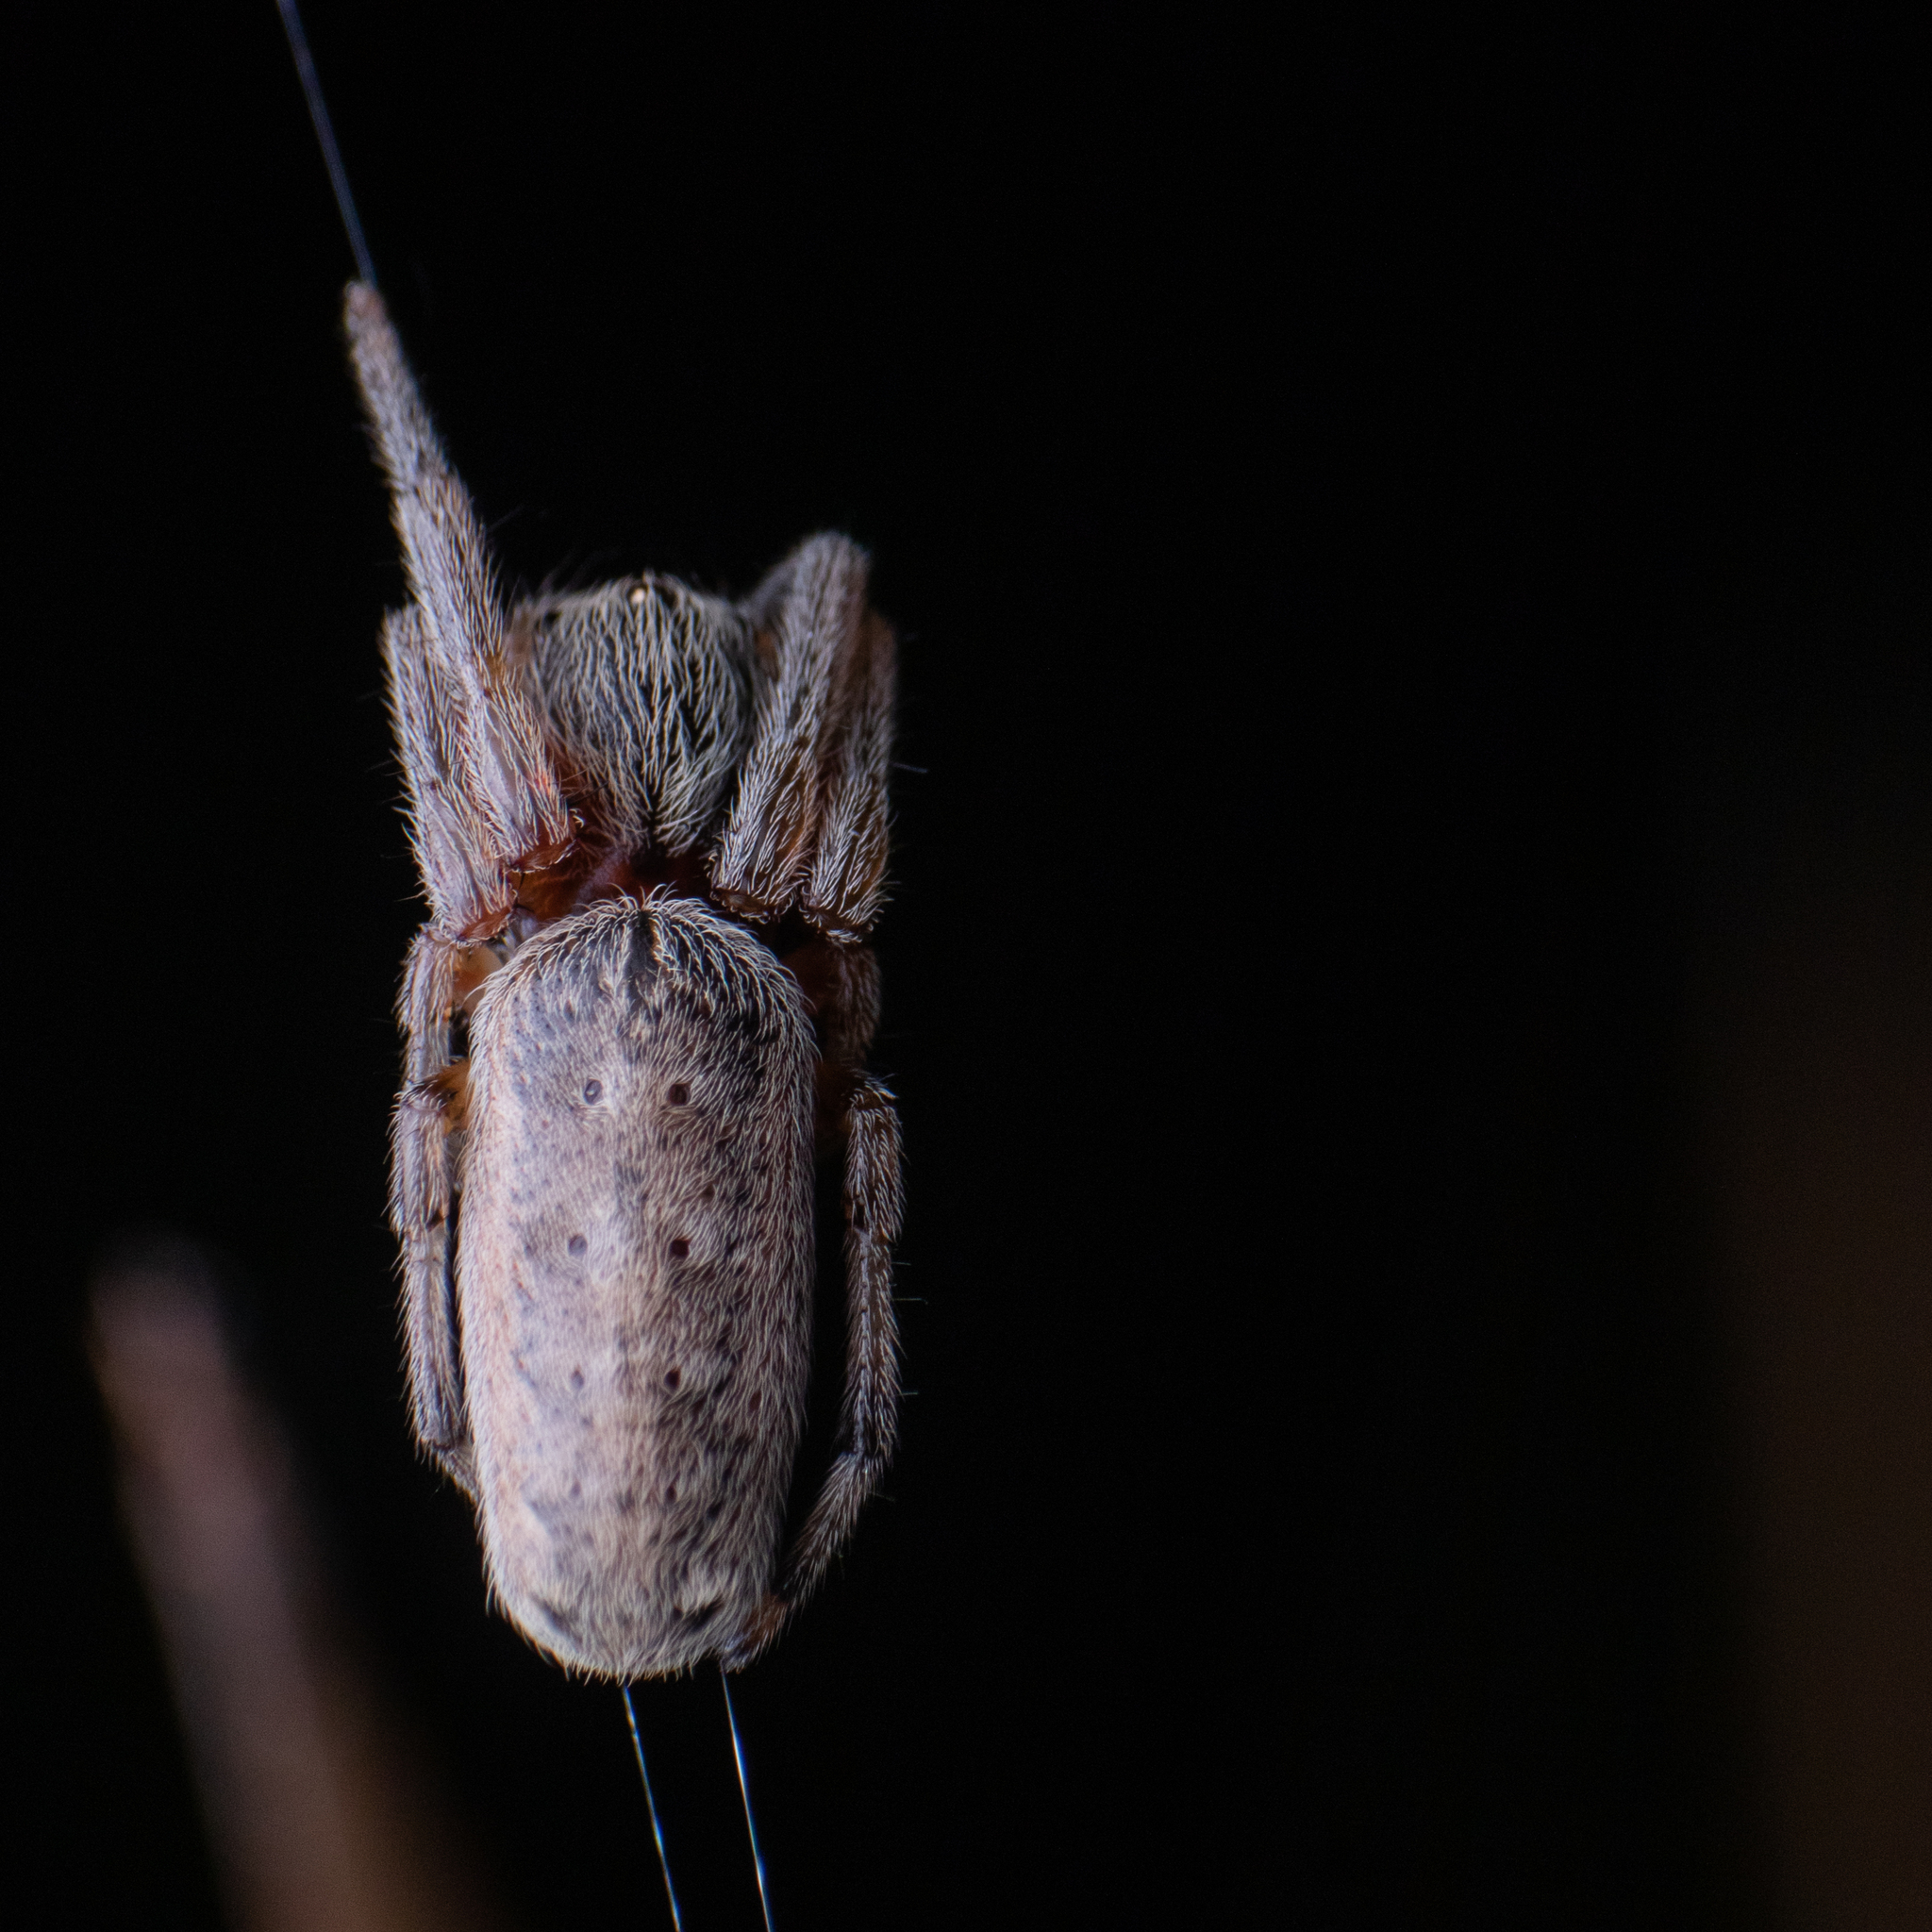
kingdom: Animalia
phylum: Arthropoda
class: Arachnida
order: Araneae
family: Araneidae
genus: Araneus
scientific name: Araneus tubabdominus
